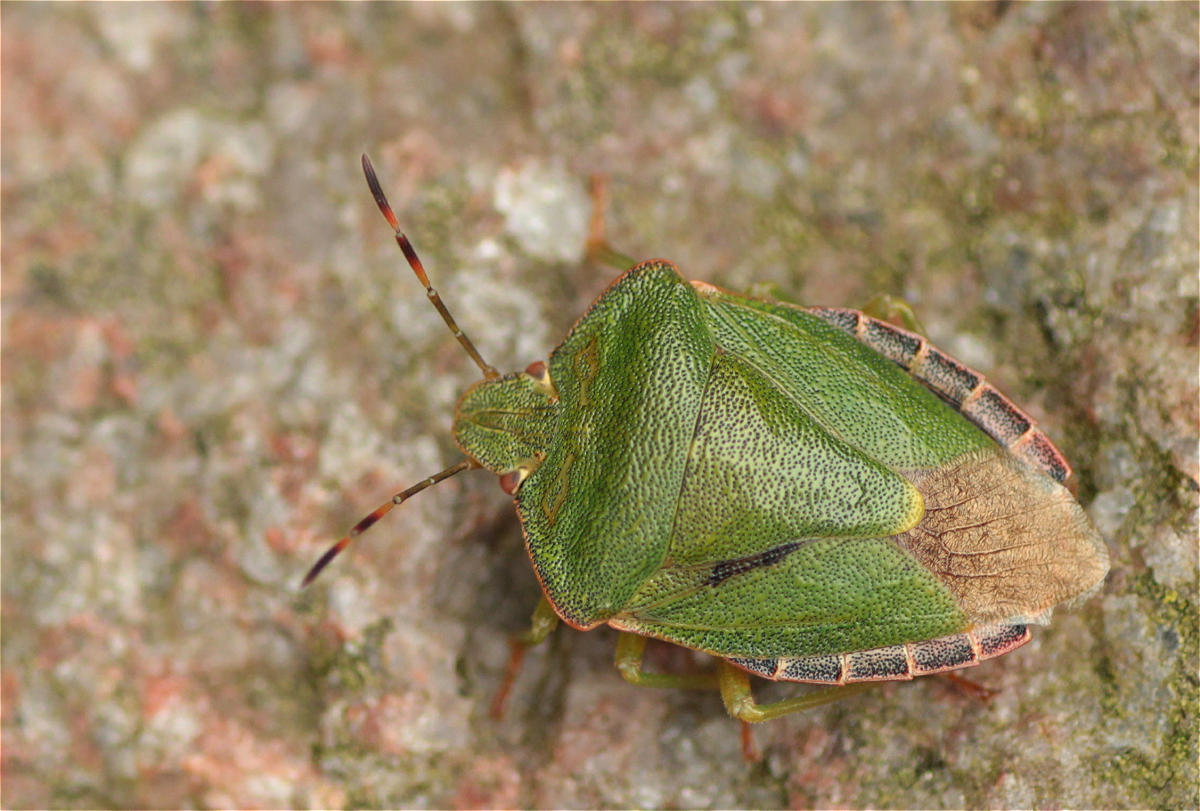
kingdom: Animalia
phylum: Arthropoda
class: Insecta
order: Hemiptera
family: Pentatomidae
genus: Palomena
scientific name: Palomena prasina
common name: Green shieldbug
